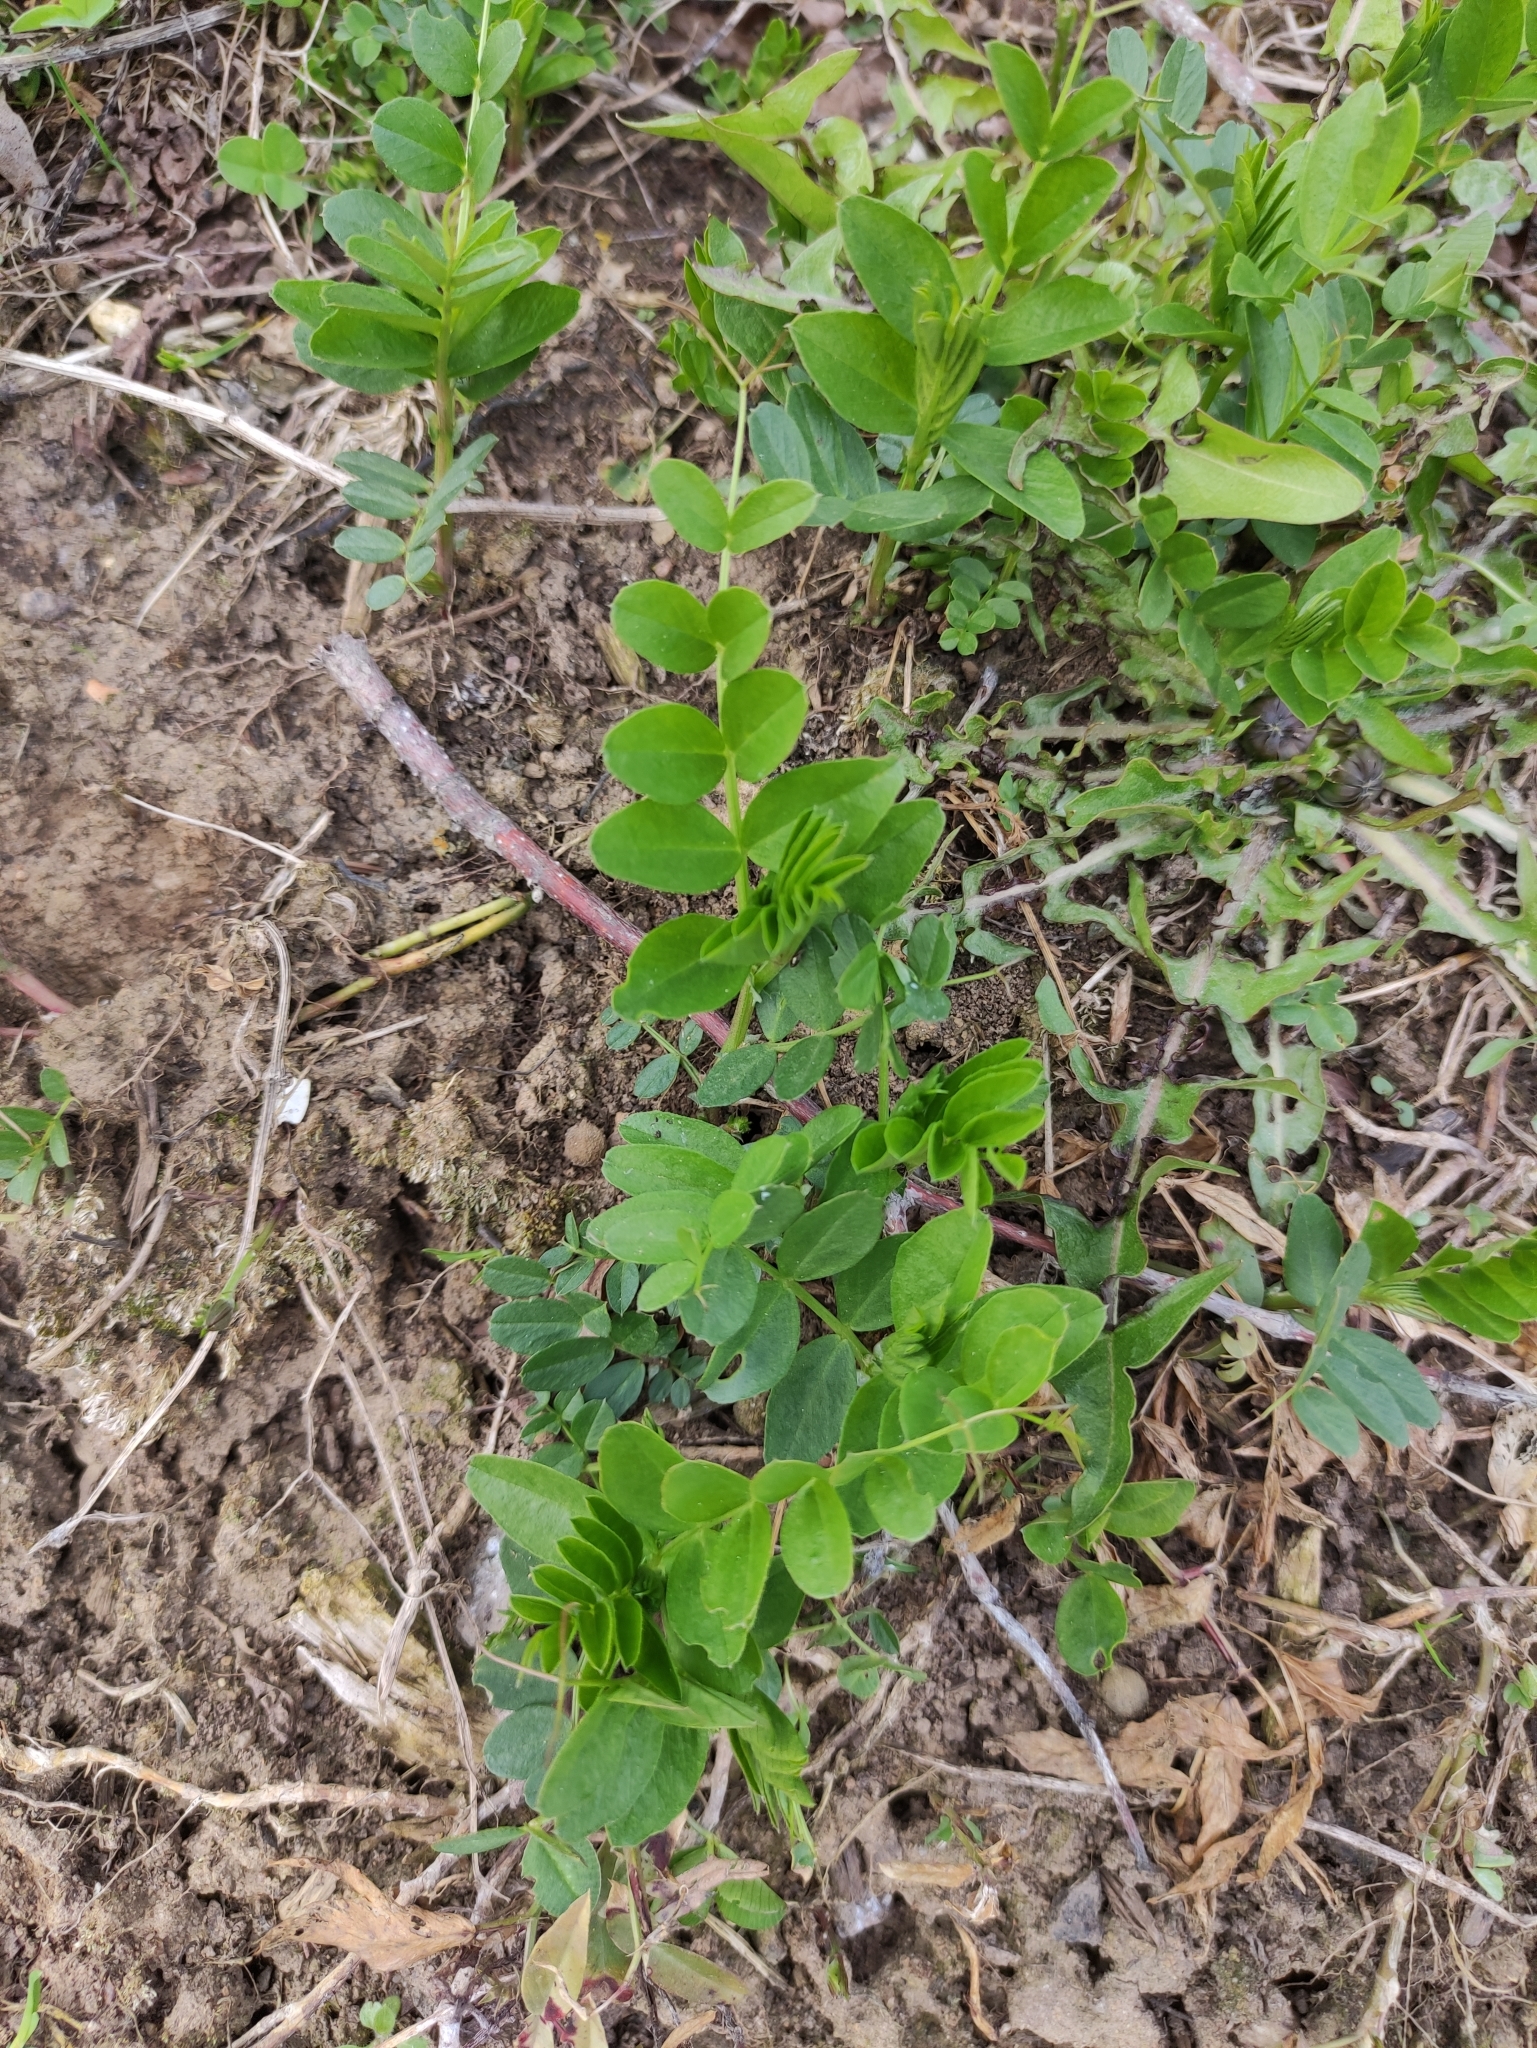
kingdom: Plantae
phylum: Tracheophyta
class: Magnoliopsida
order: Fabales
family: Fabaceae
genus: Vicia
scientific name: Vicia sepium
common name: Bush vetch
